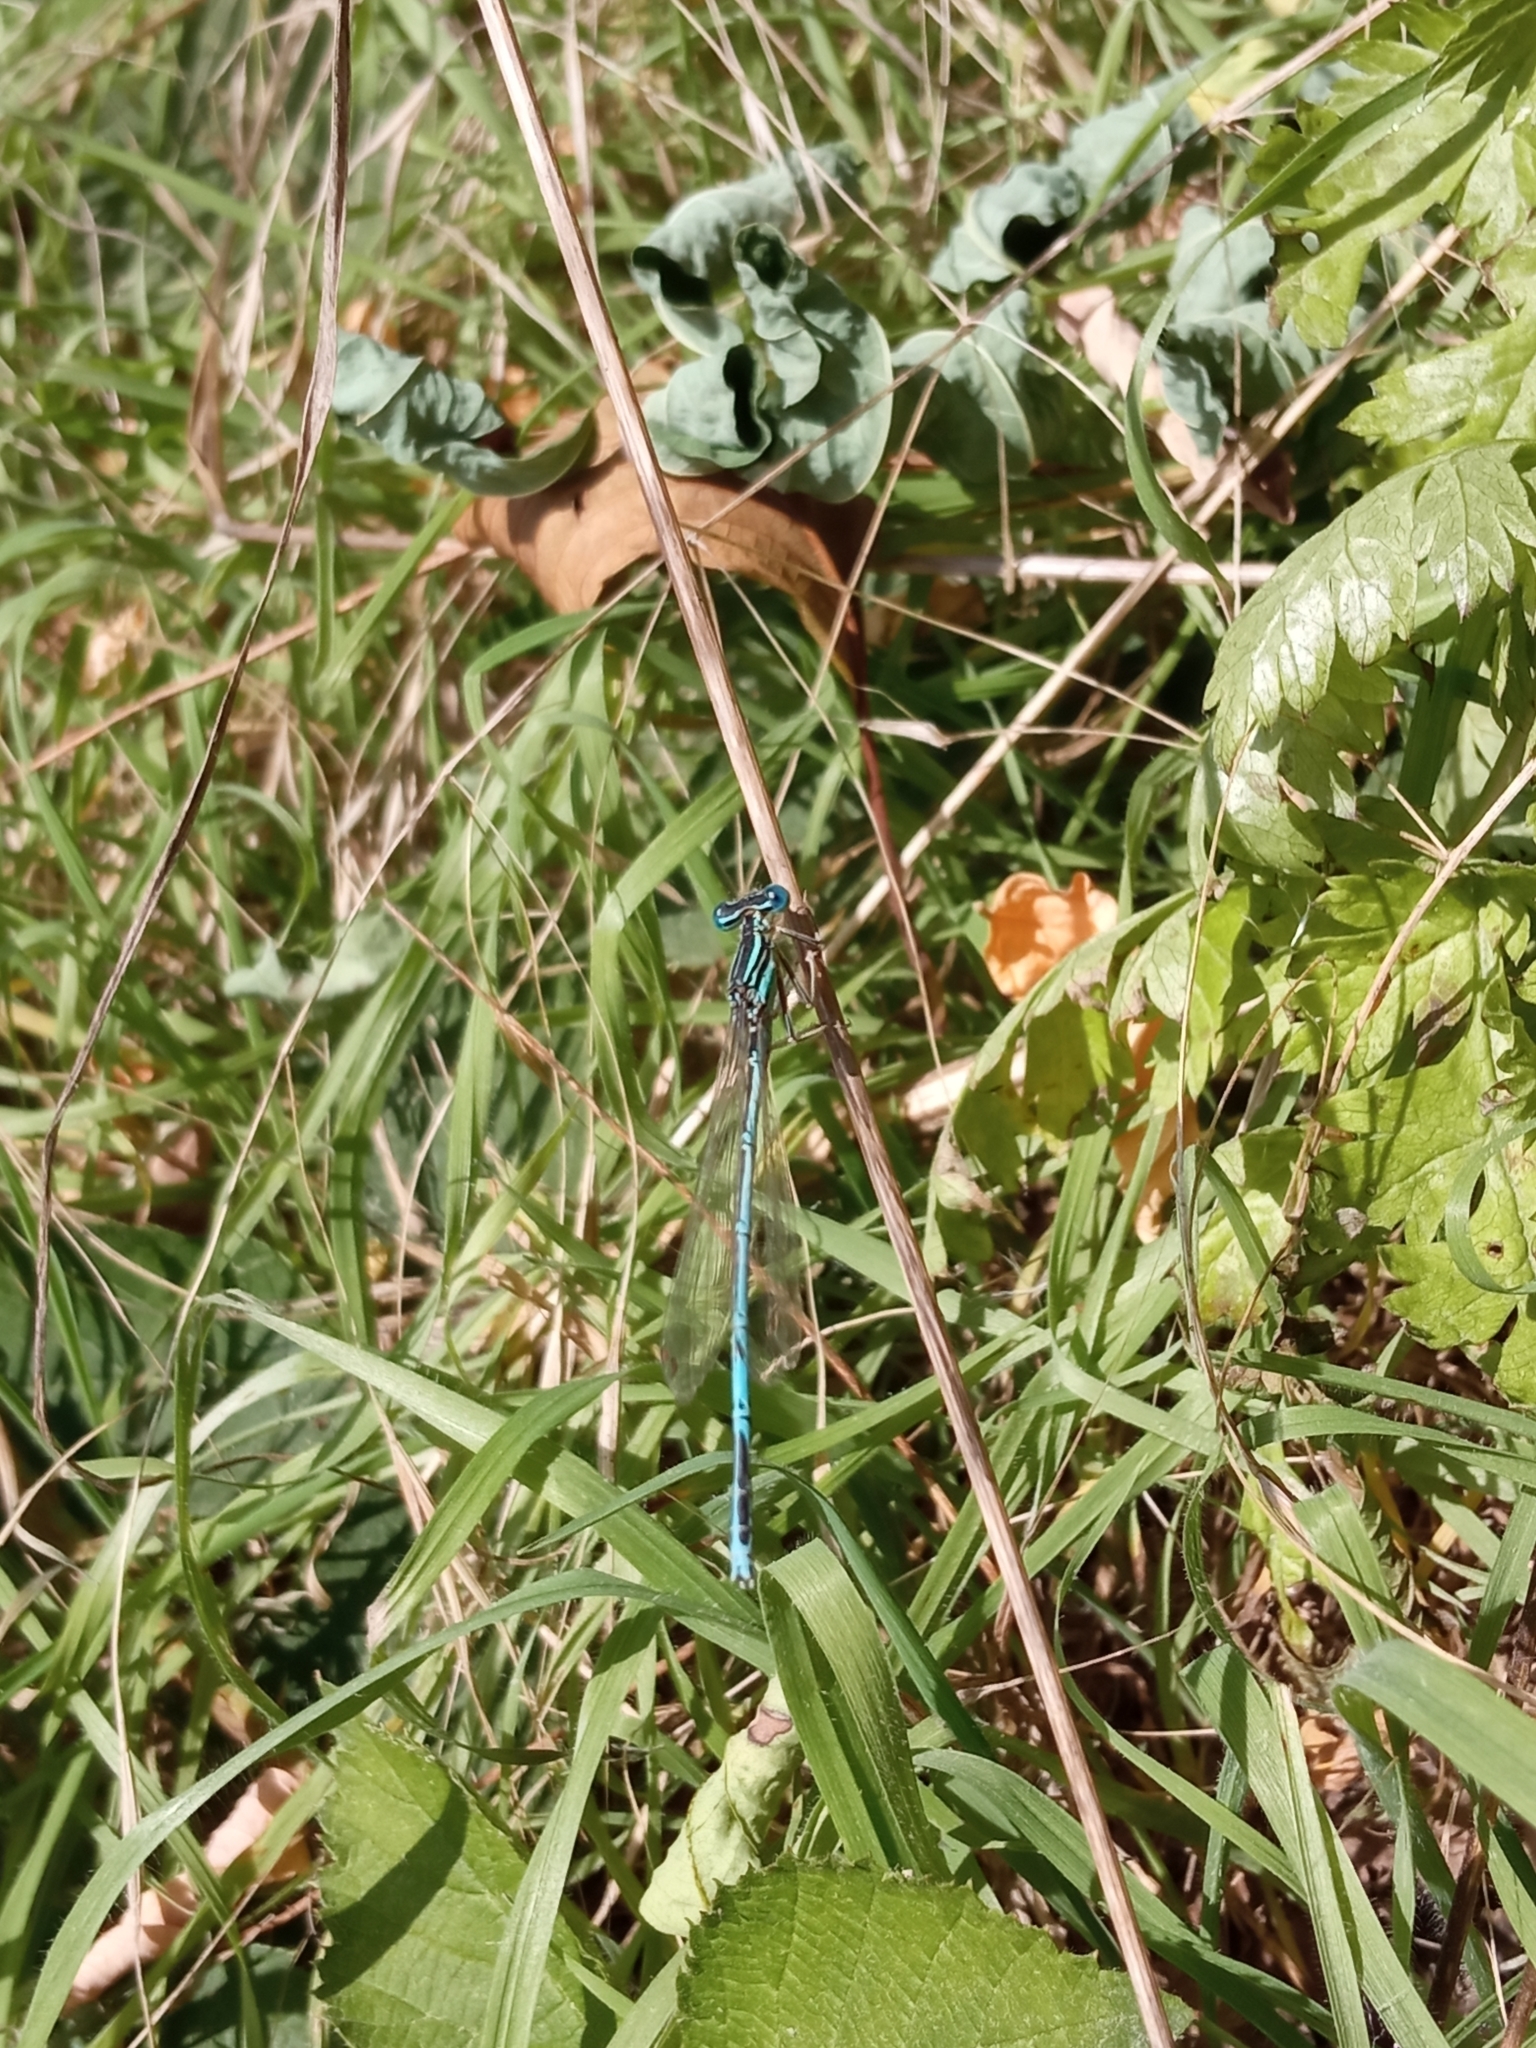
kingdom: Animalia
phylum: Arthropoda
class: Insecta
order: Odonata
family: Platycnemididae
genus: Platycnemis
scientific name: Platycnemis pennipes
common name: White-legged damselfly
